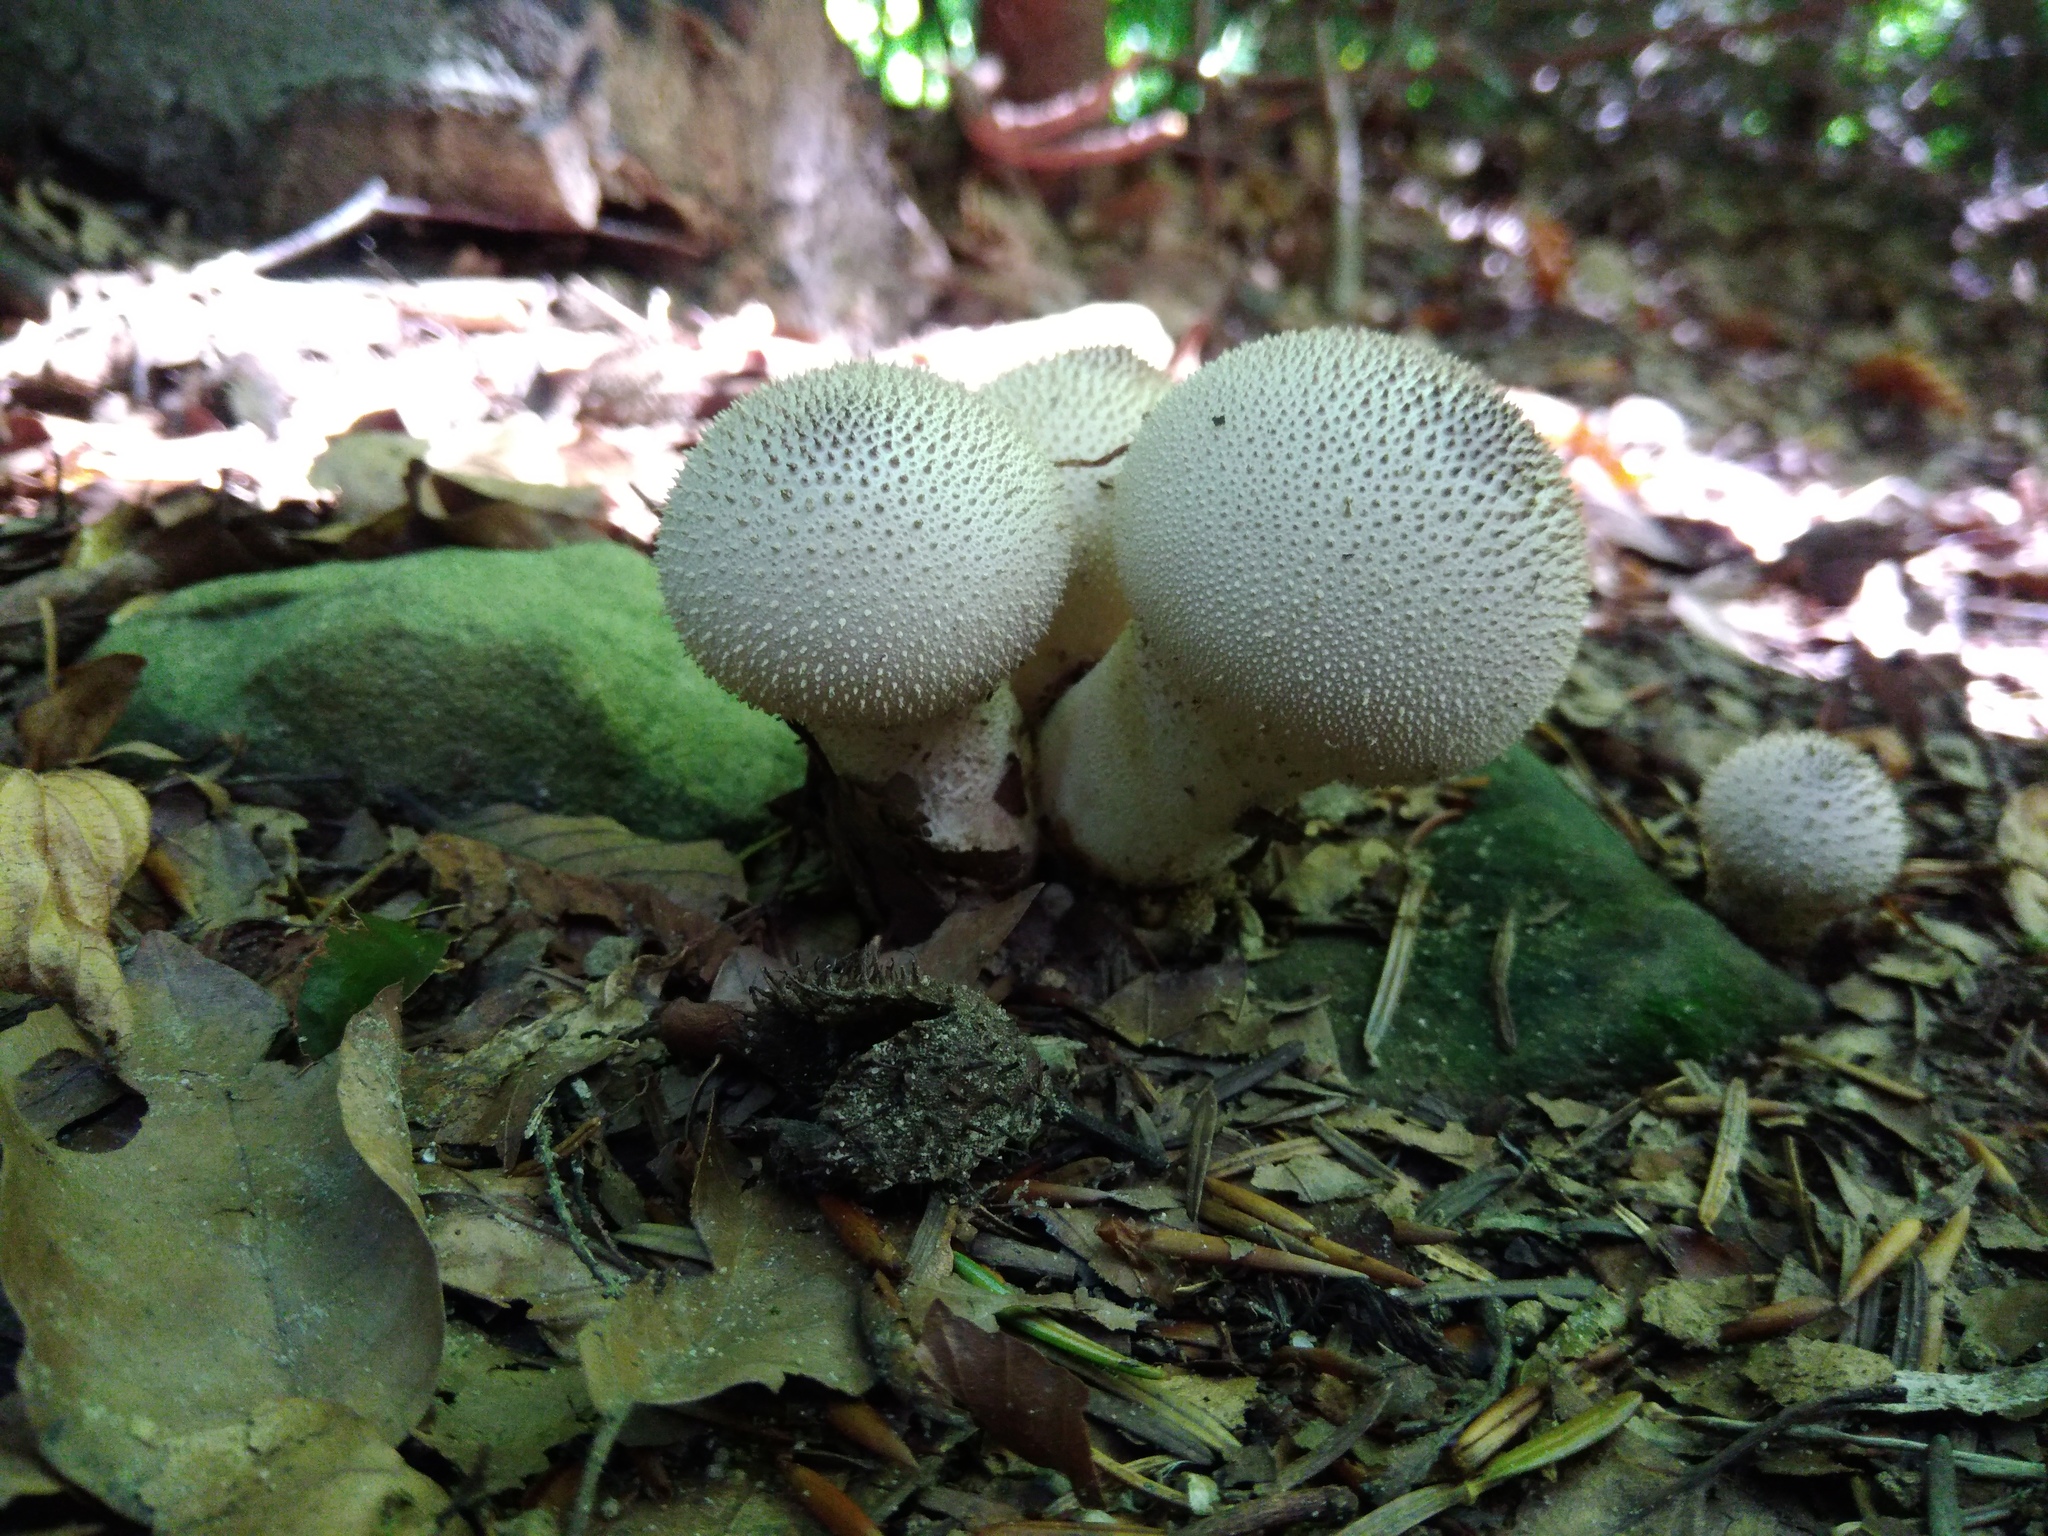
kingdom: Fungi
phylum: Basidiomycota
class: Agaricomycetes
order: Agaricales
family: Lycoperdaceae
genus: Lycoperdon
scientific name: Lycoperdon perlatum
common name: Common puffball
